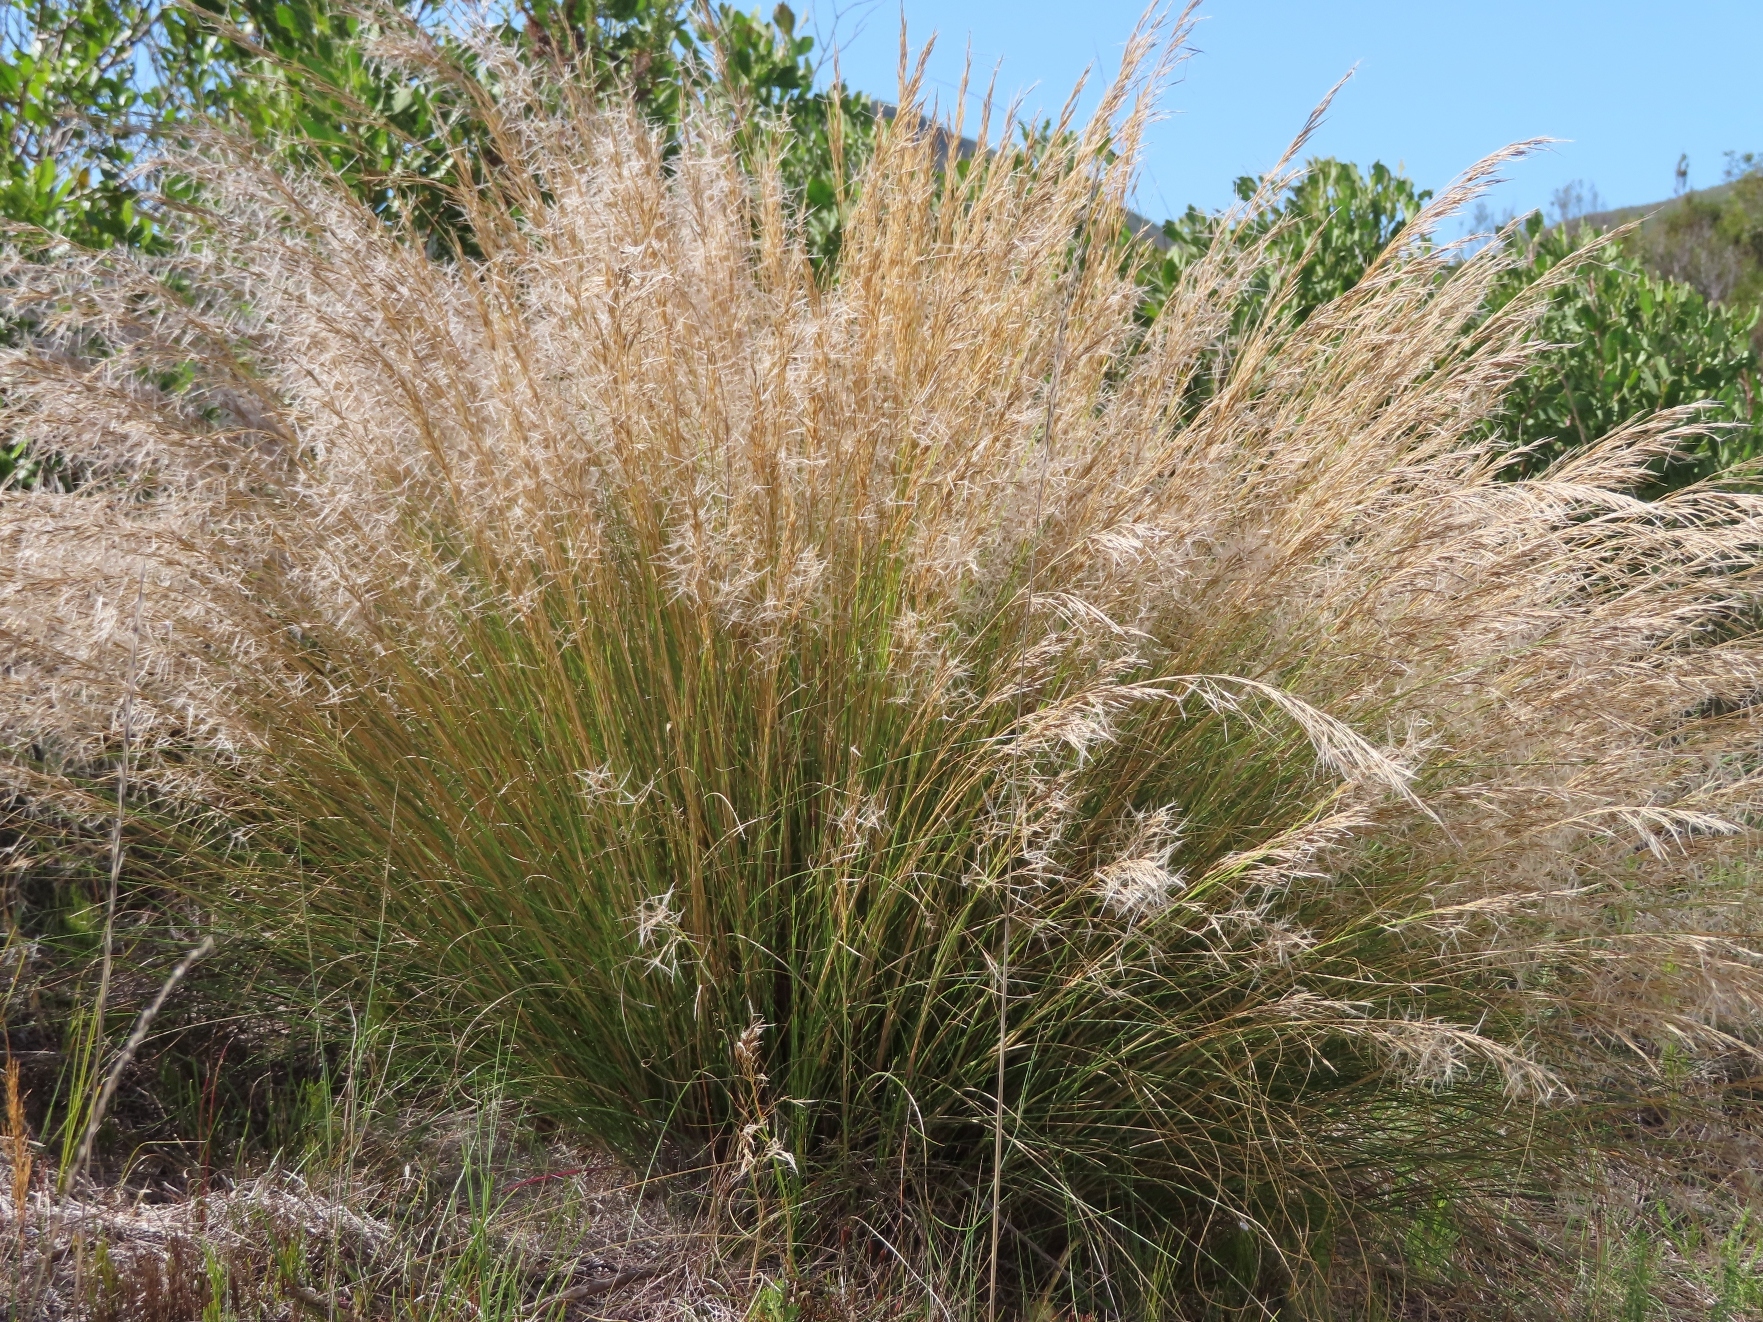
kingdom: Plantae
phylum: Tracheophyta
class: Liliopsida
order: Poales
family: Poaceae
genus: Stipagrostis
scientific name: Stipagrostis zeyheri
